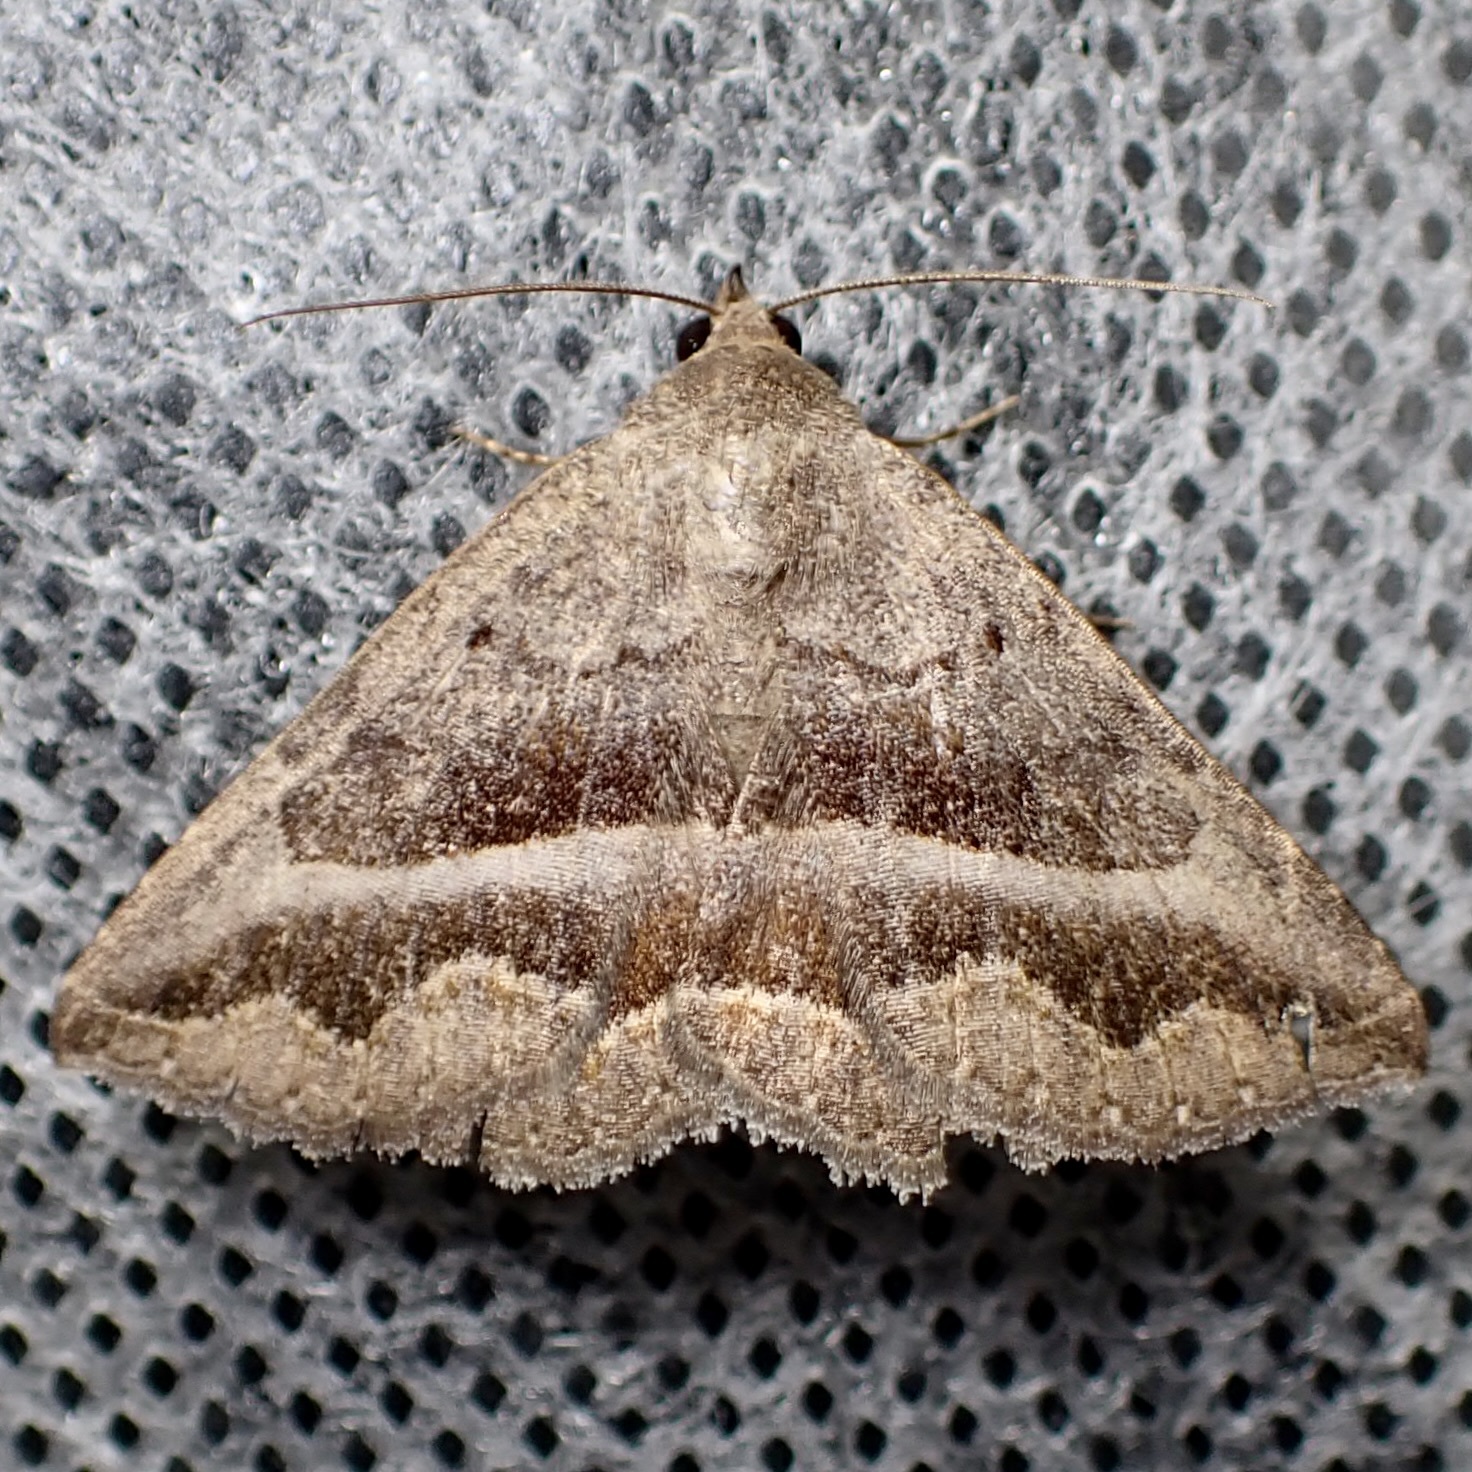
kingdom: Animalia
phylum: Arthropoda
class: Insecta
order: Lepidoptera
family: Erebidae
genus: Lesmone
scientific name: Lesmone griseipennis
